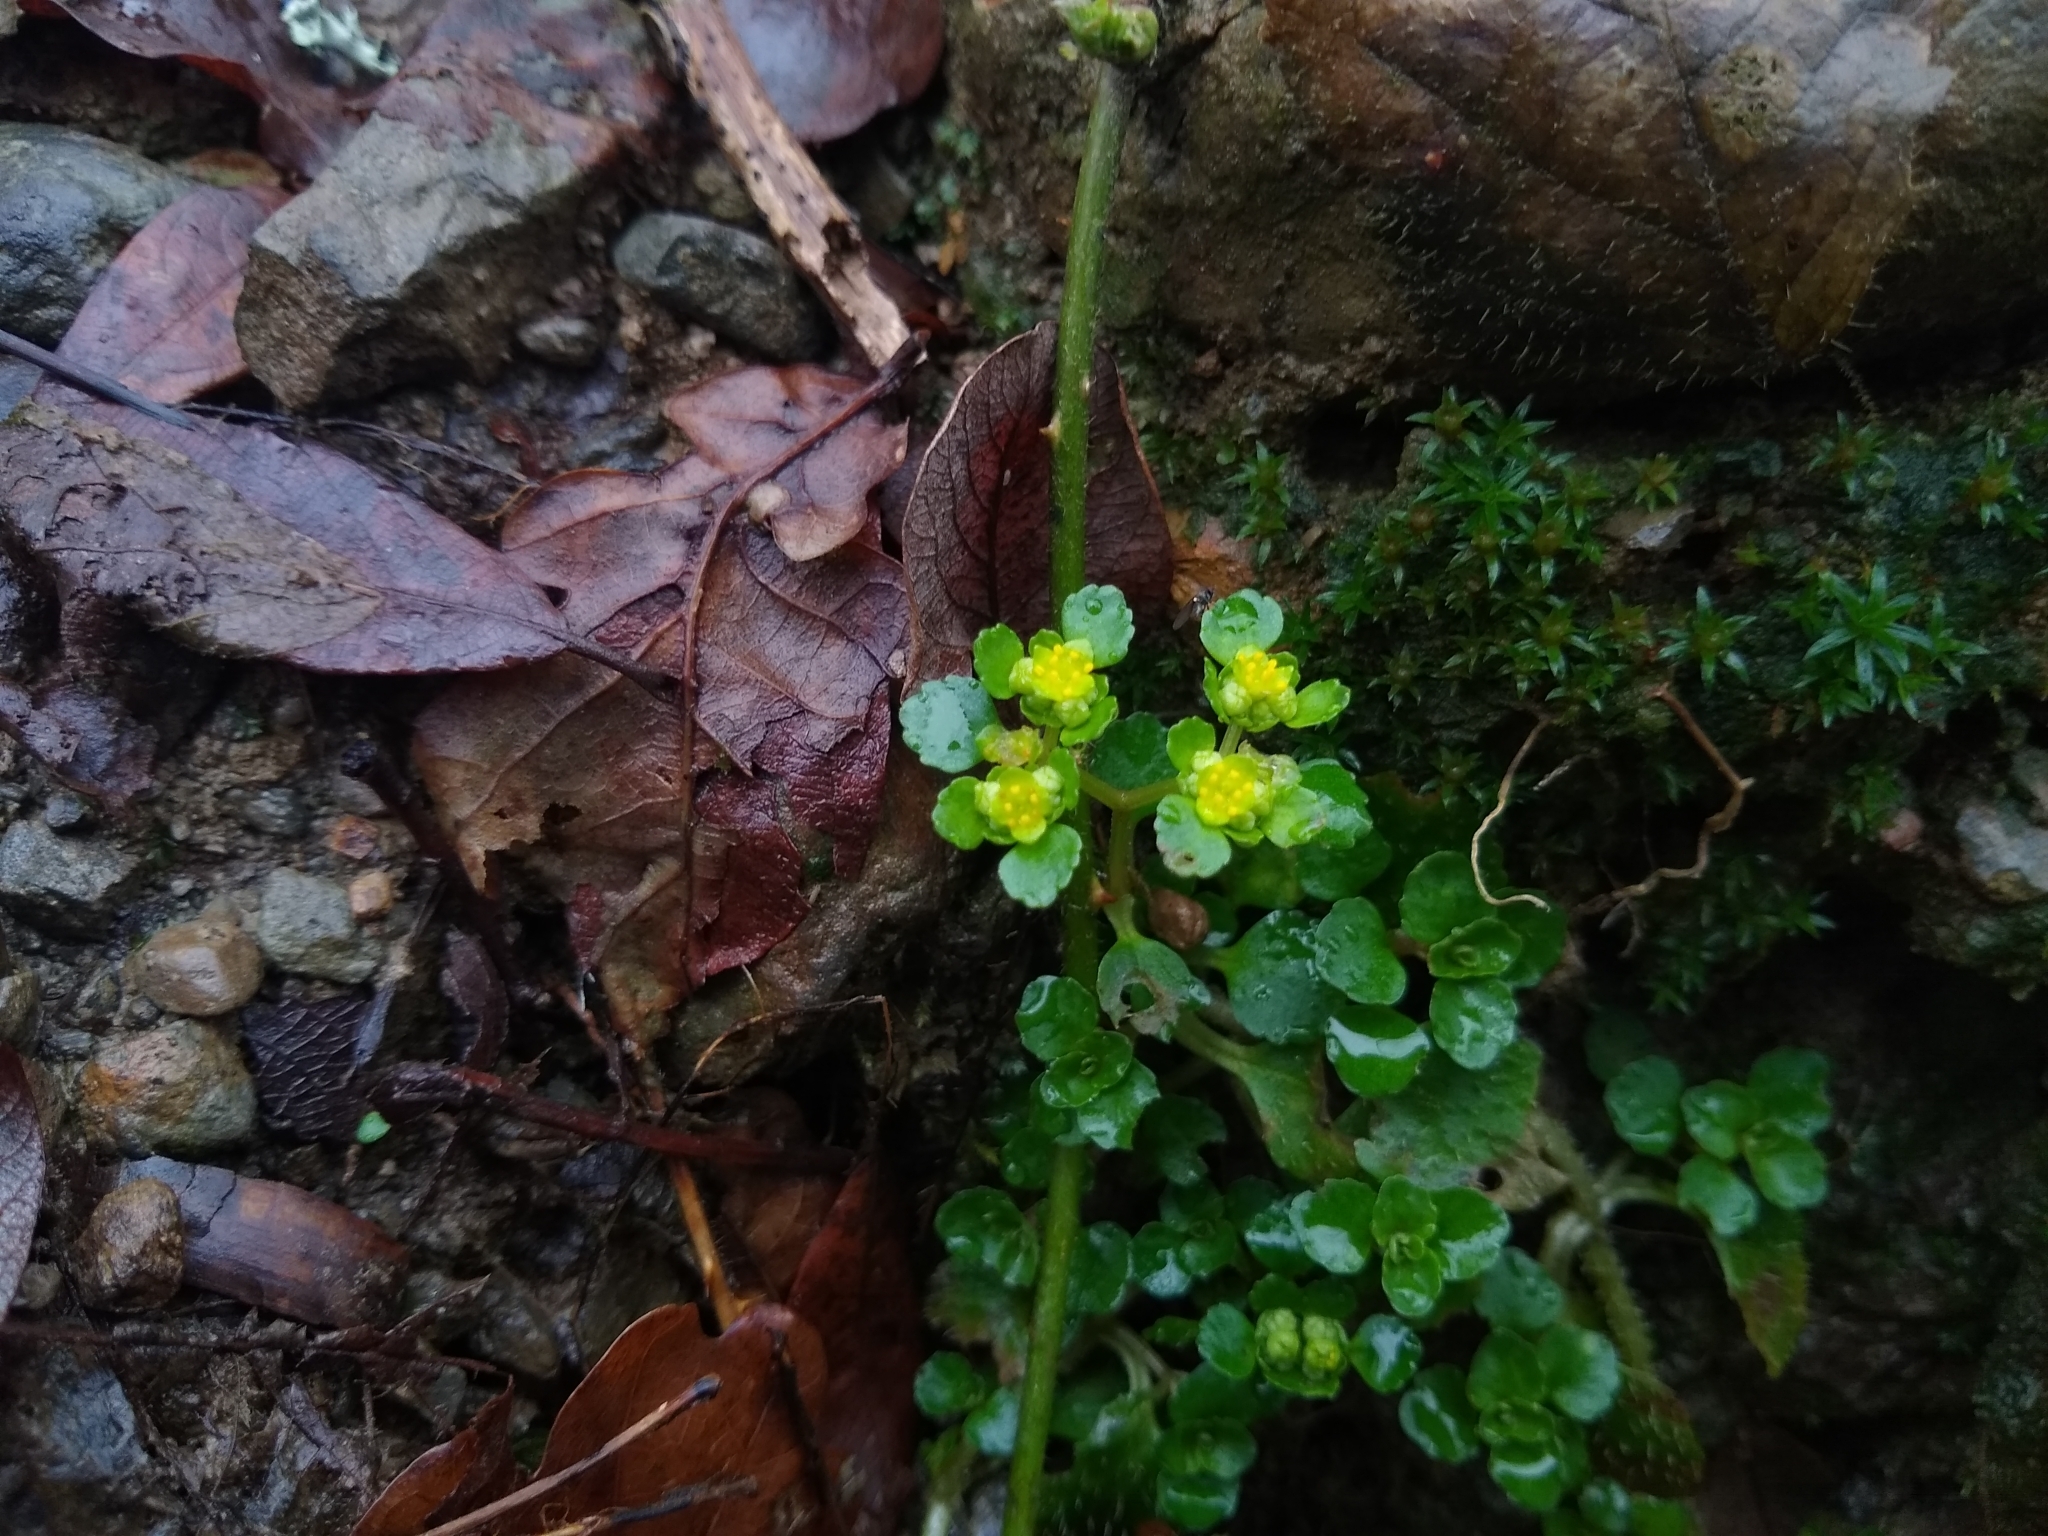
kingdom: Plantae
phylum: Tracheophyta
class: Magnoliopsida
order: Saxifragales
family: Saxifragaceae
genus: Chrysosplenium
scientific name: Chrysosplenium oppositifolium
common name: Opposite-leaved golden-saxifrage
